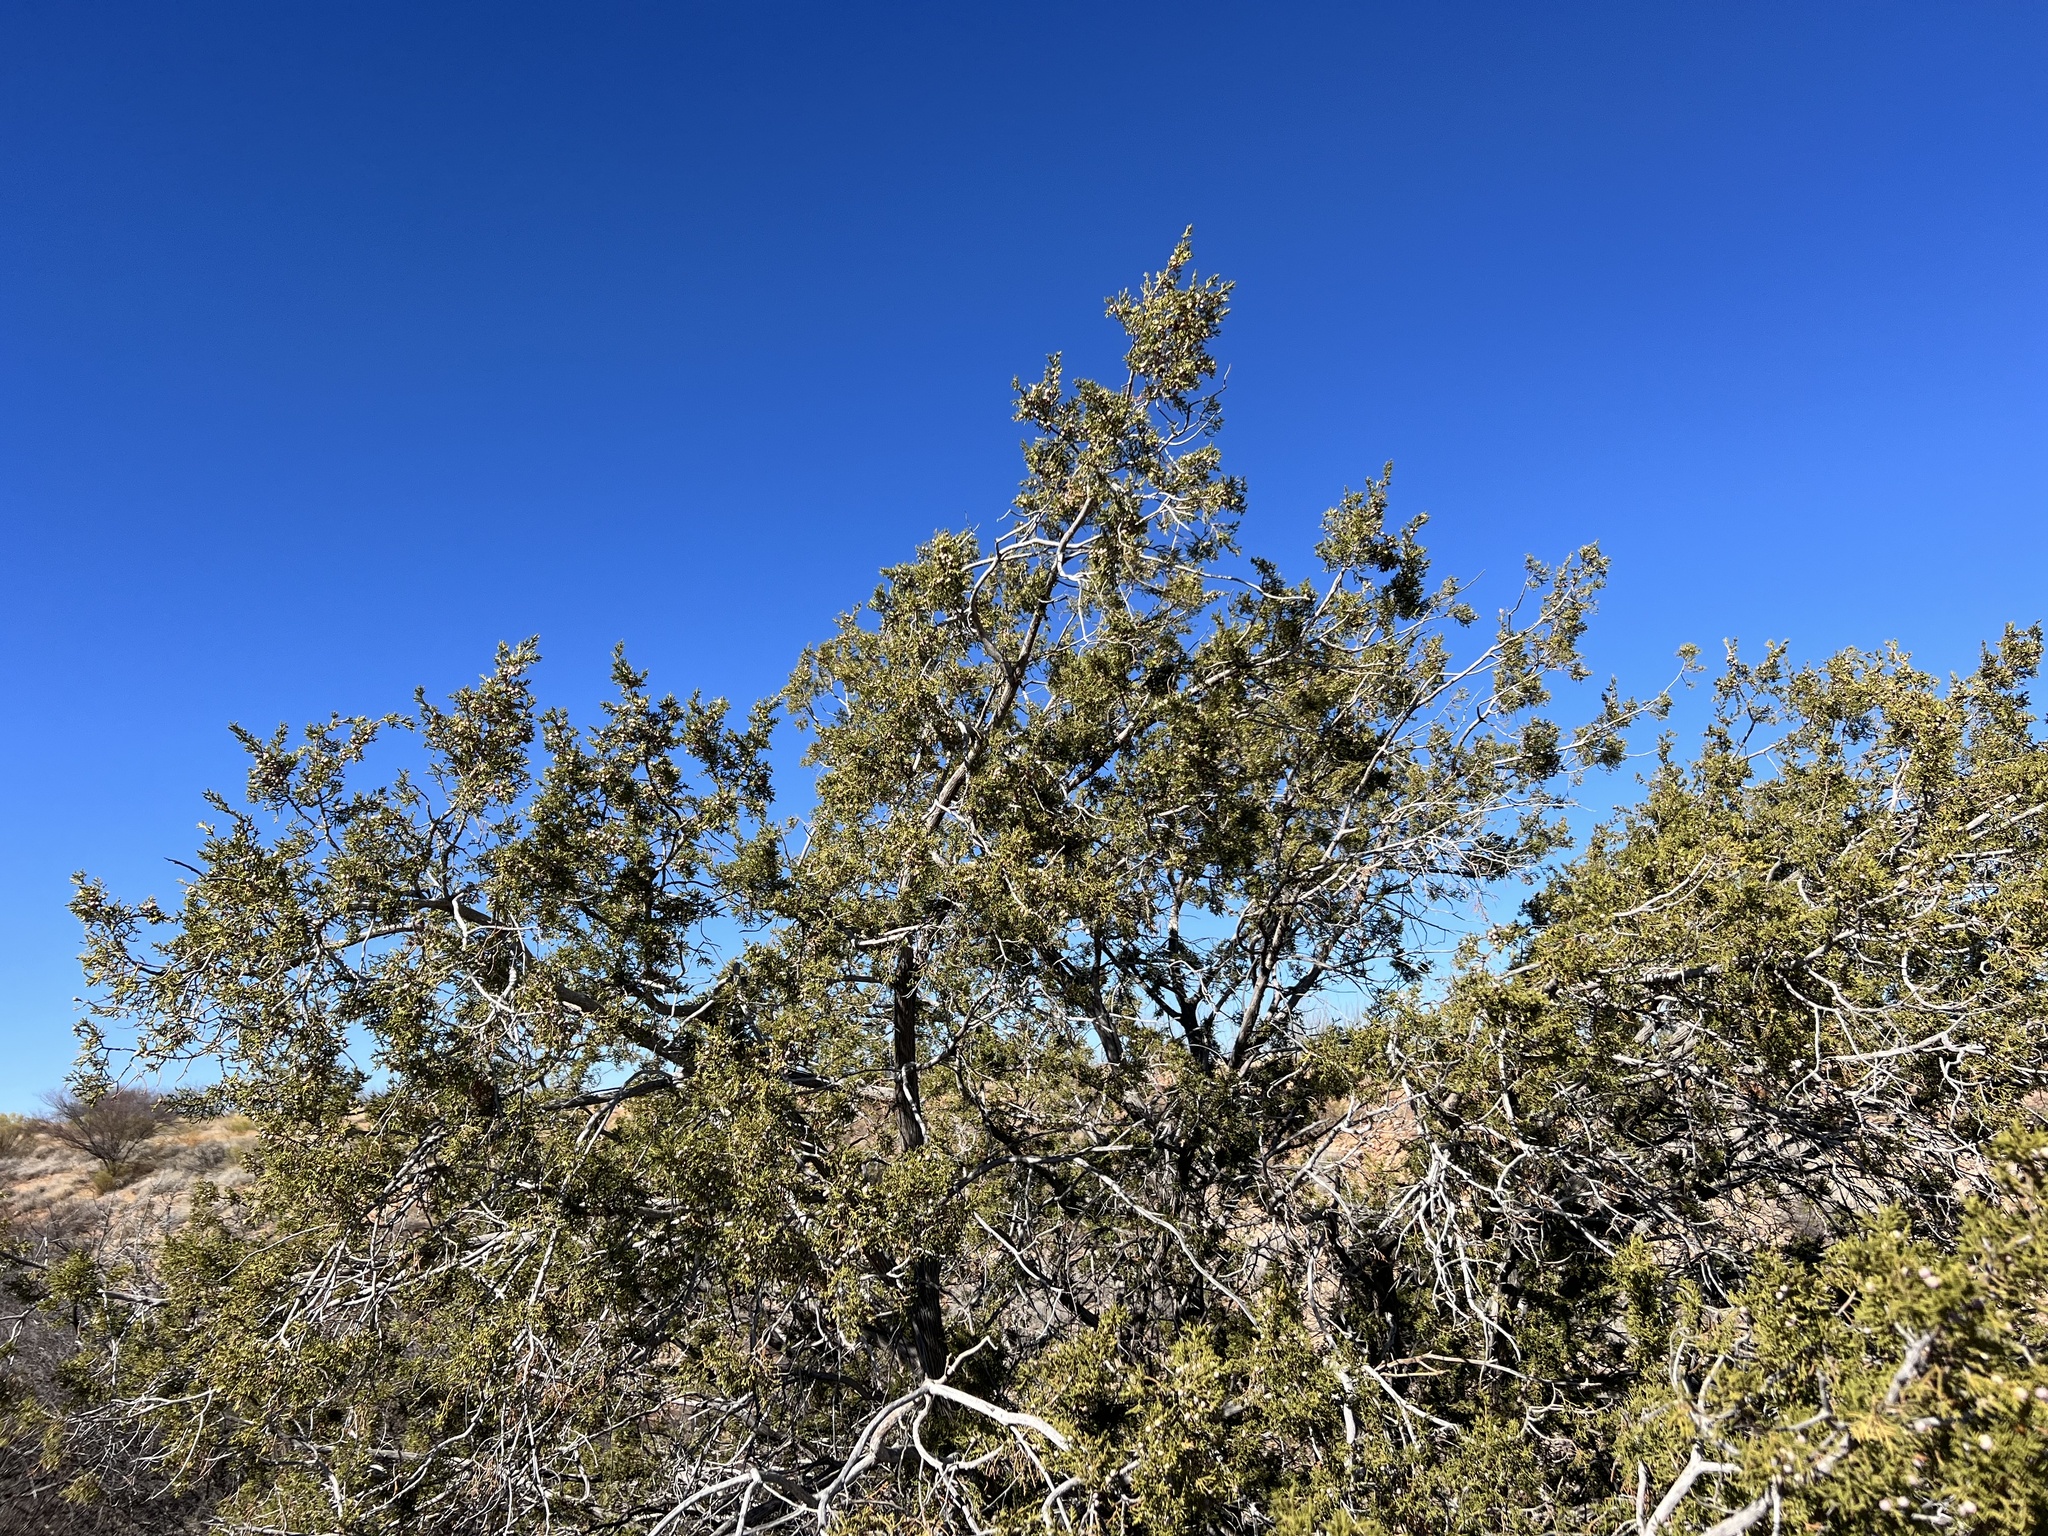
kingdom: Plantae
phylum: Tracheophyta
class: Pinopsida
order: Pinales
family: Cupressaceae
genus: Juniperus
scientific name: Juniperus arizonica
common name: Arizona juniper
